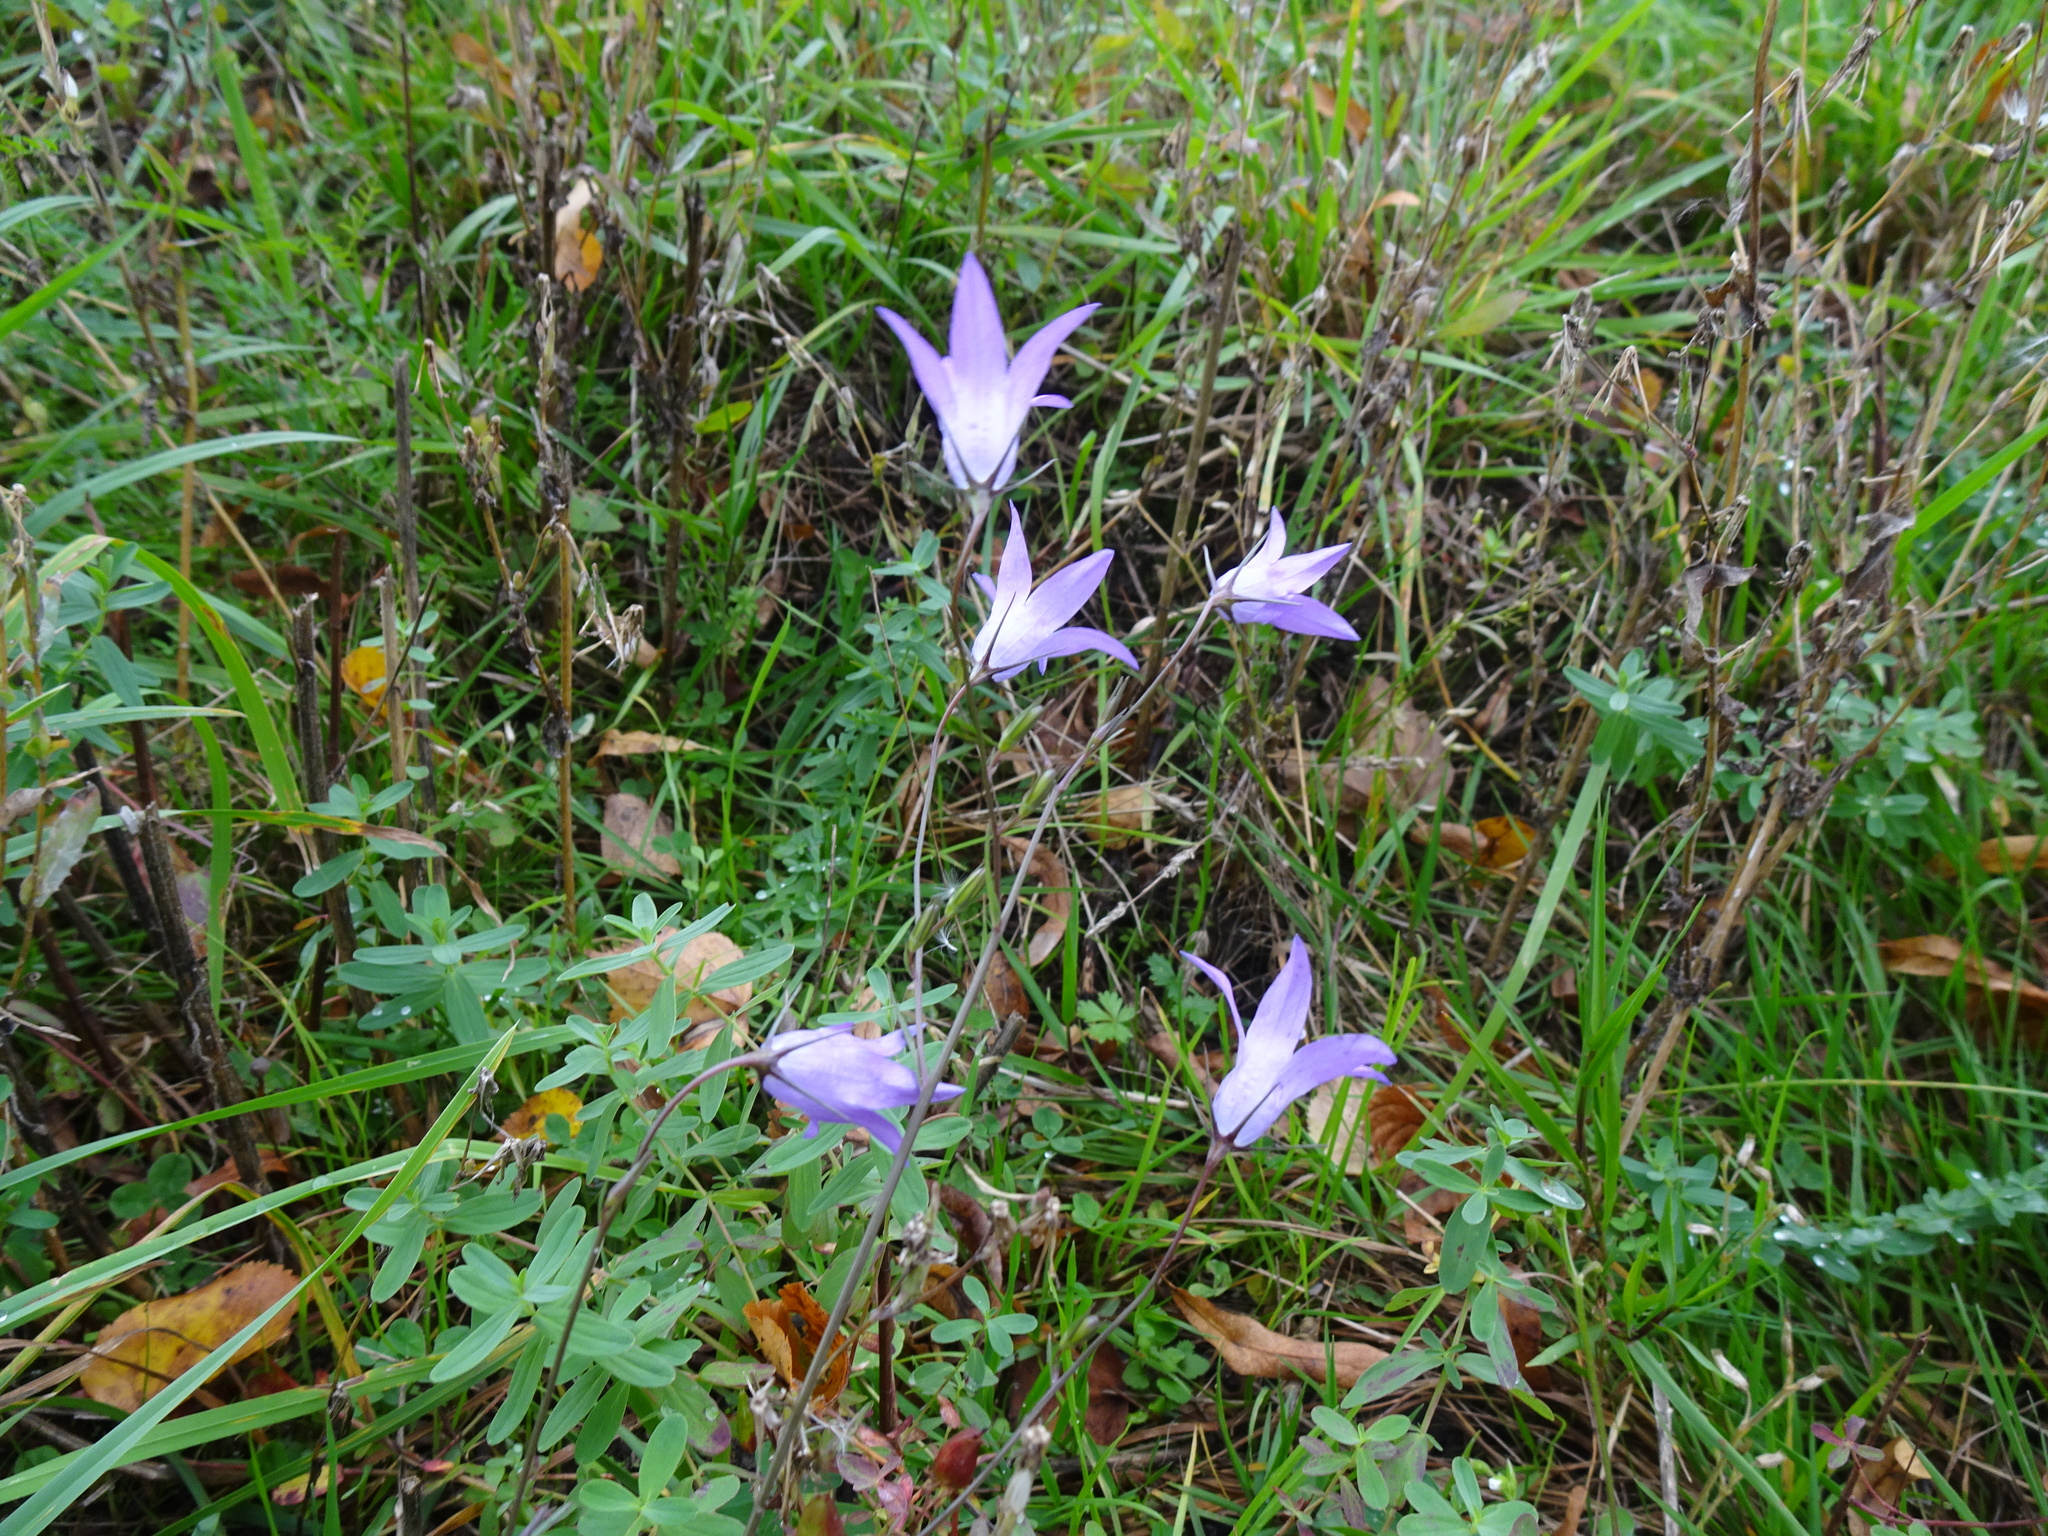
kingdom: Plantae
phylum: Tracheophyta
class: Magnoliopsida
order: Asterales
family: Campanulaceae
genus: Campanula
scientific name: Campanula rapunculus
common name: Rampion bellflower
